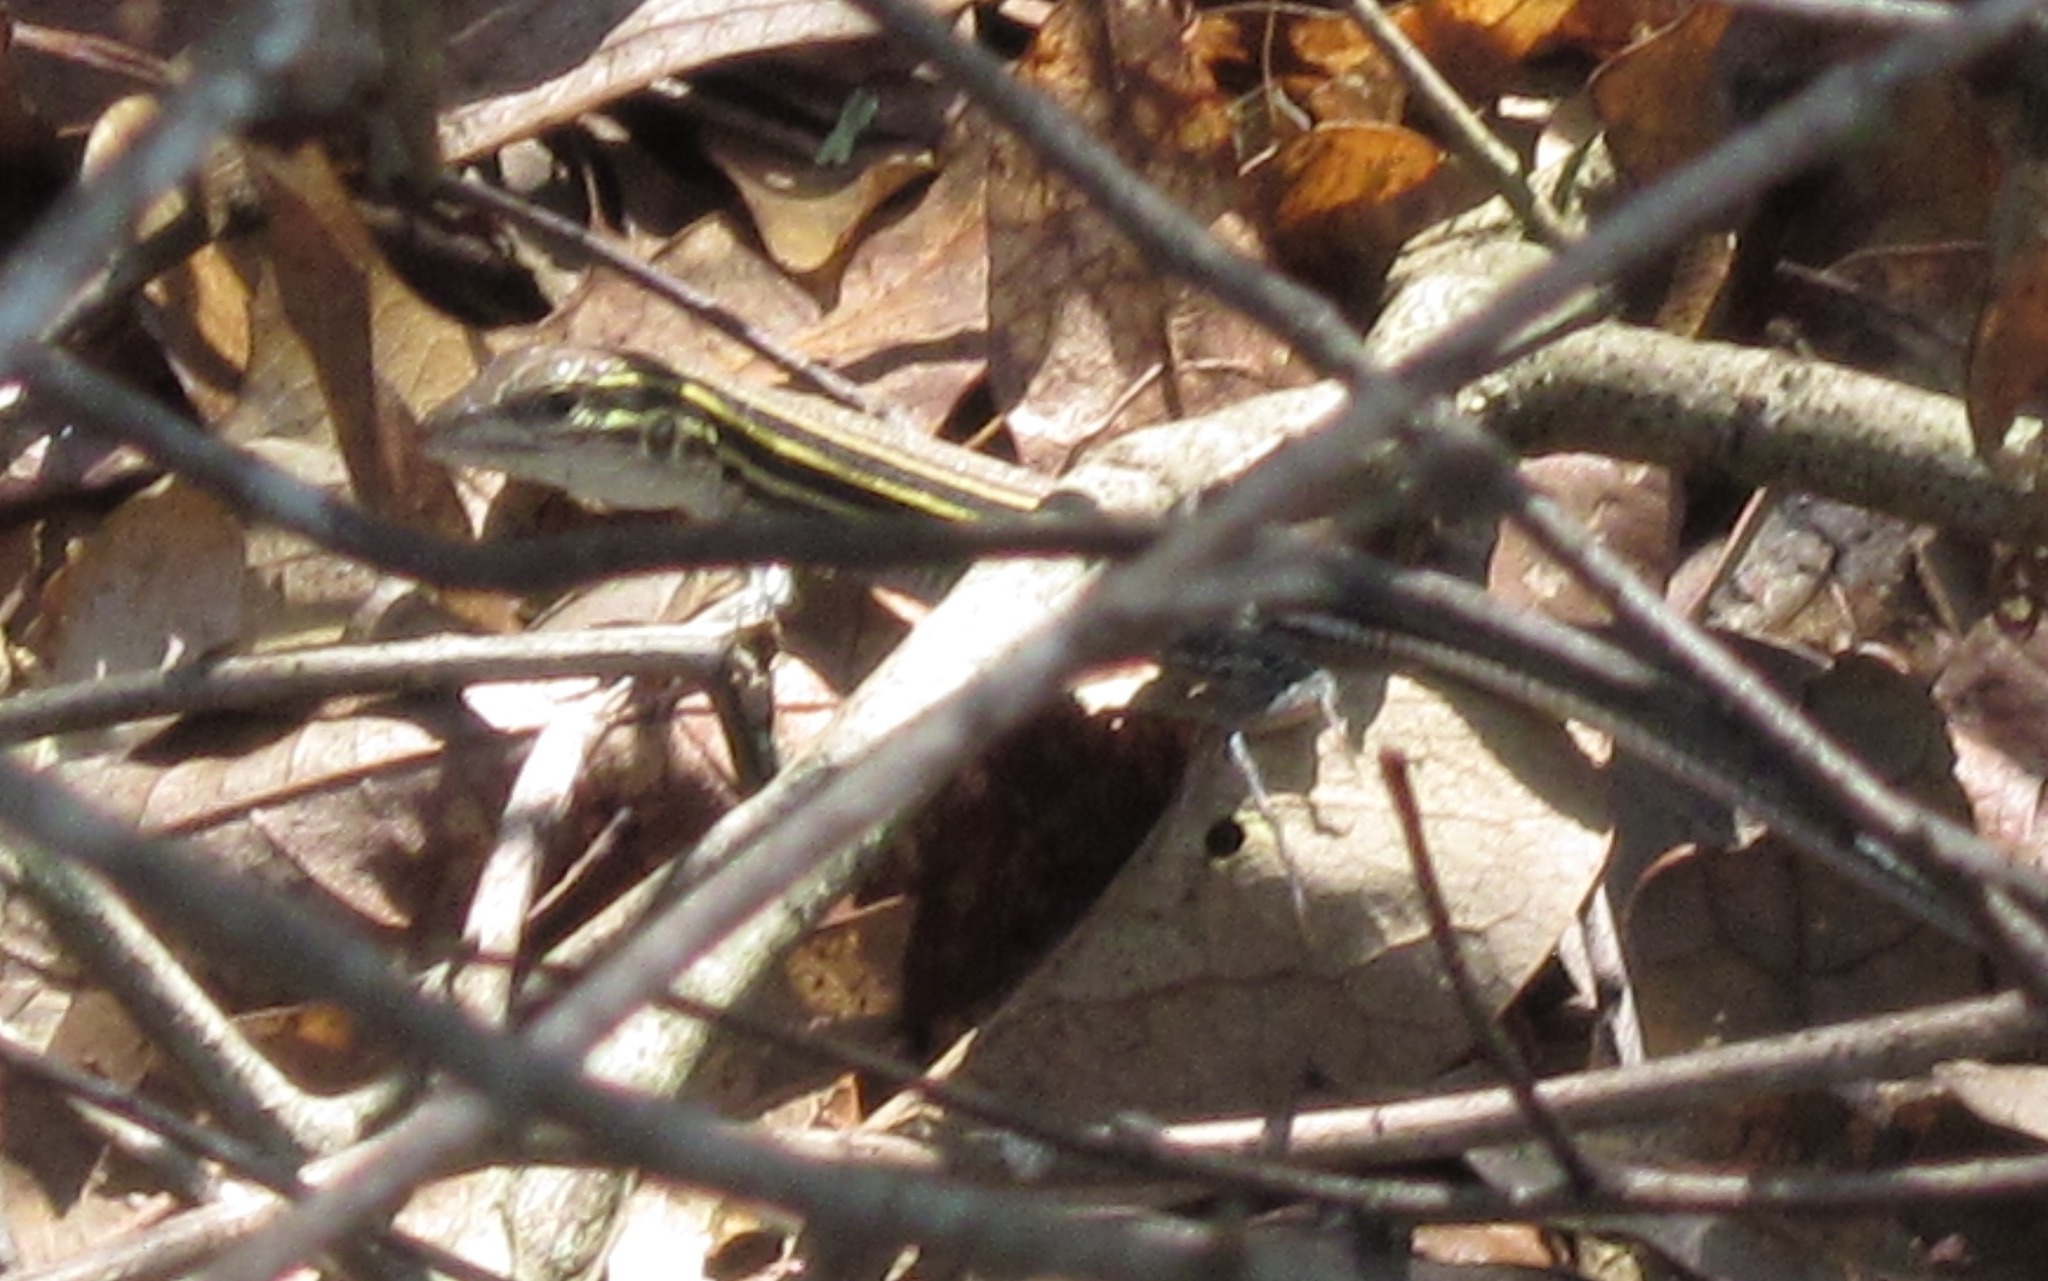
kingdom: Animalia
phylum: Chordata
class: Squamata
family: Teiidae
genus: Aspidoscelis
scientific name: Aspidoscelis sexlineatus
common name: Six-lined racerunner
